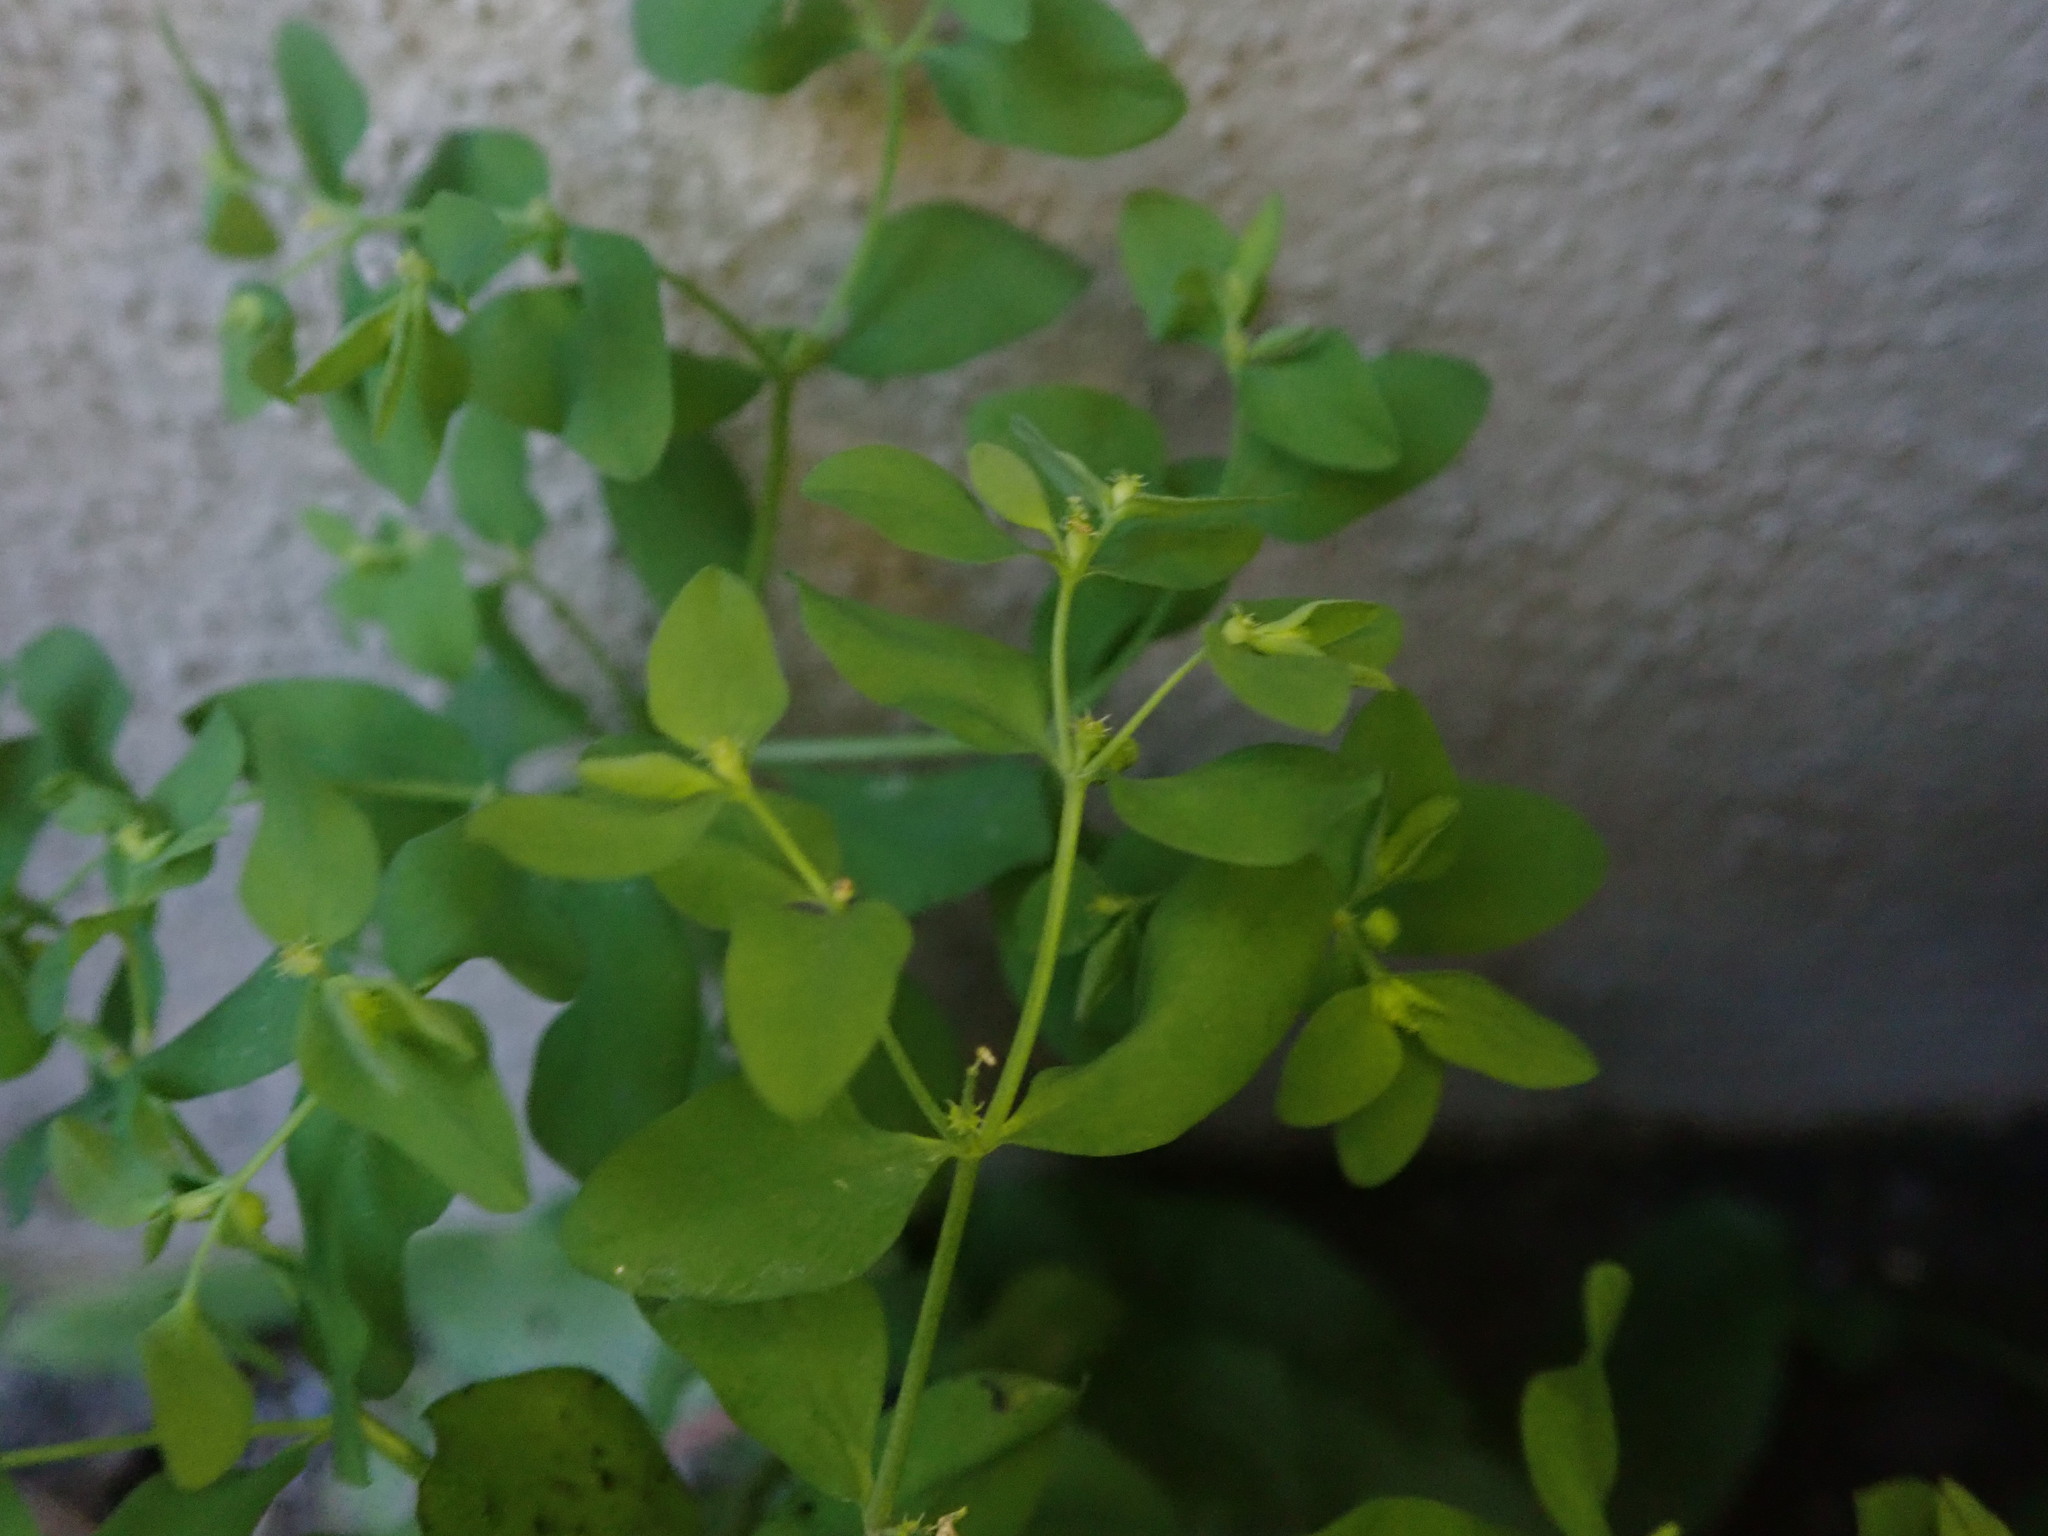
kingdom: Plantae
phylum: Tracheophyta
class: Magnoliopsida
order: Malpighiales
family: Euphorbiaceae
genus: Euphorbia
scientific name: Euphorbia peplus
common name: Petty spurge
